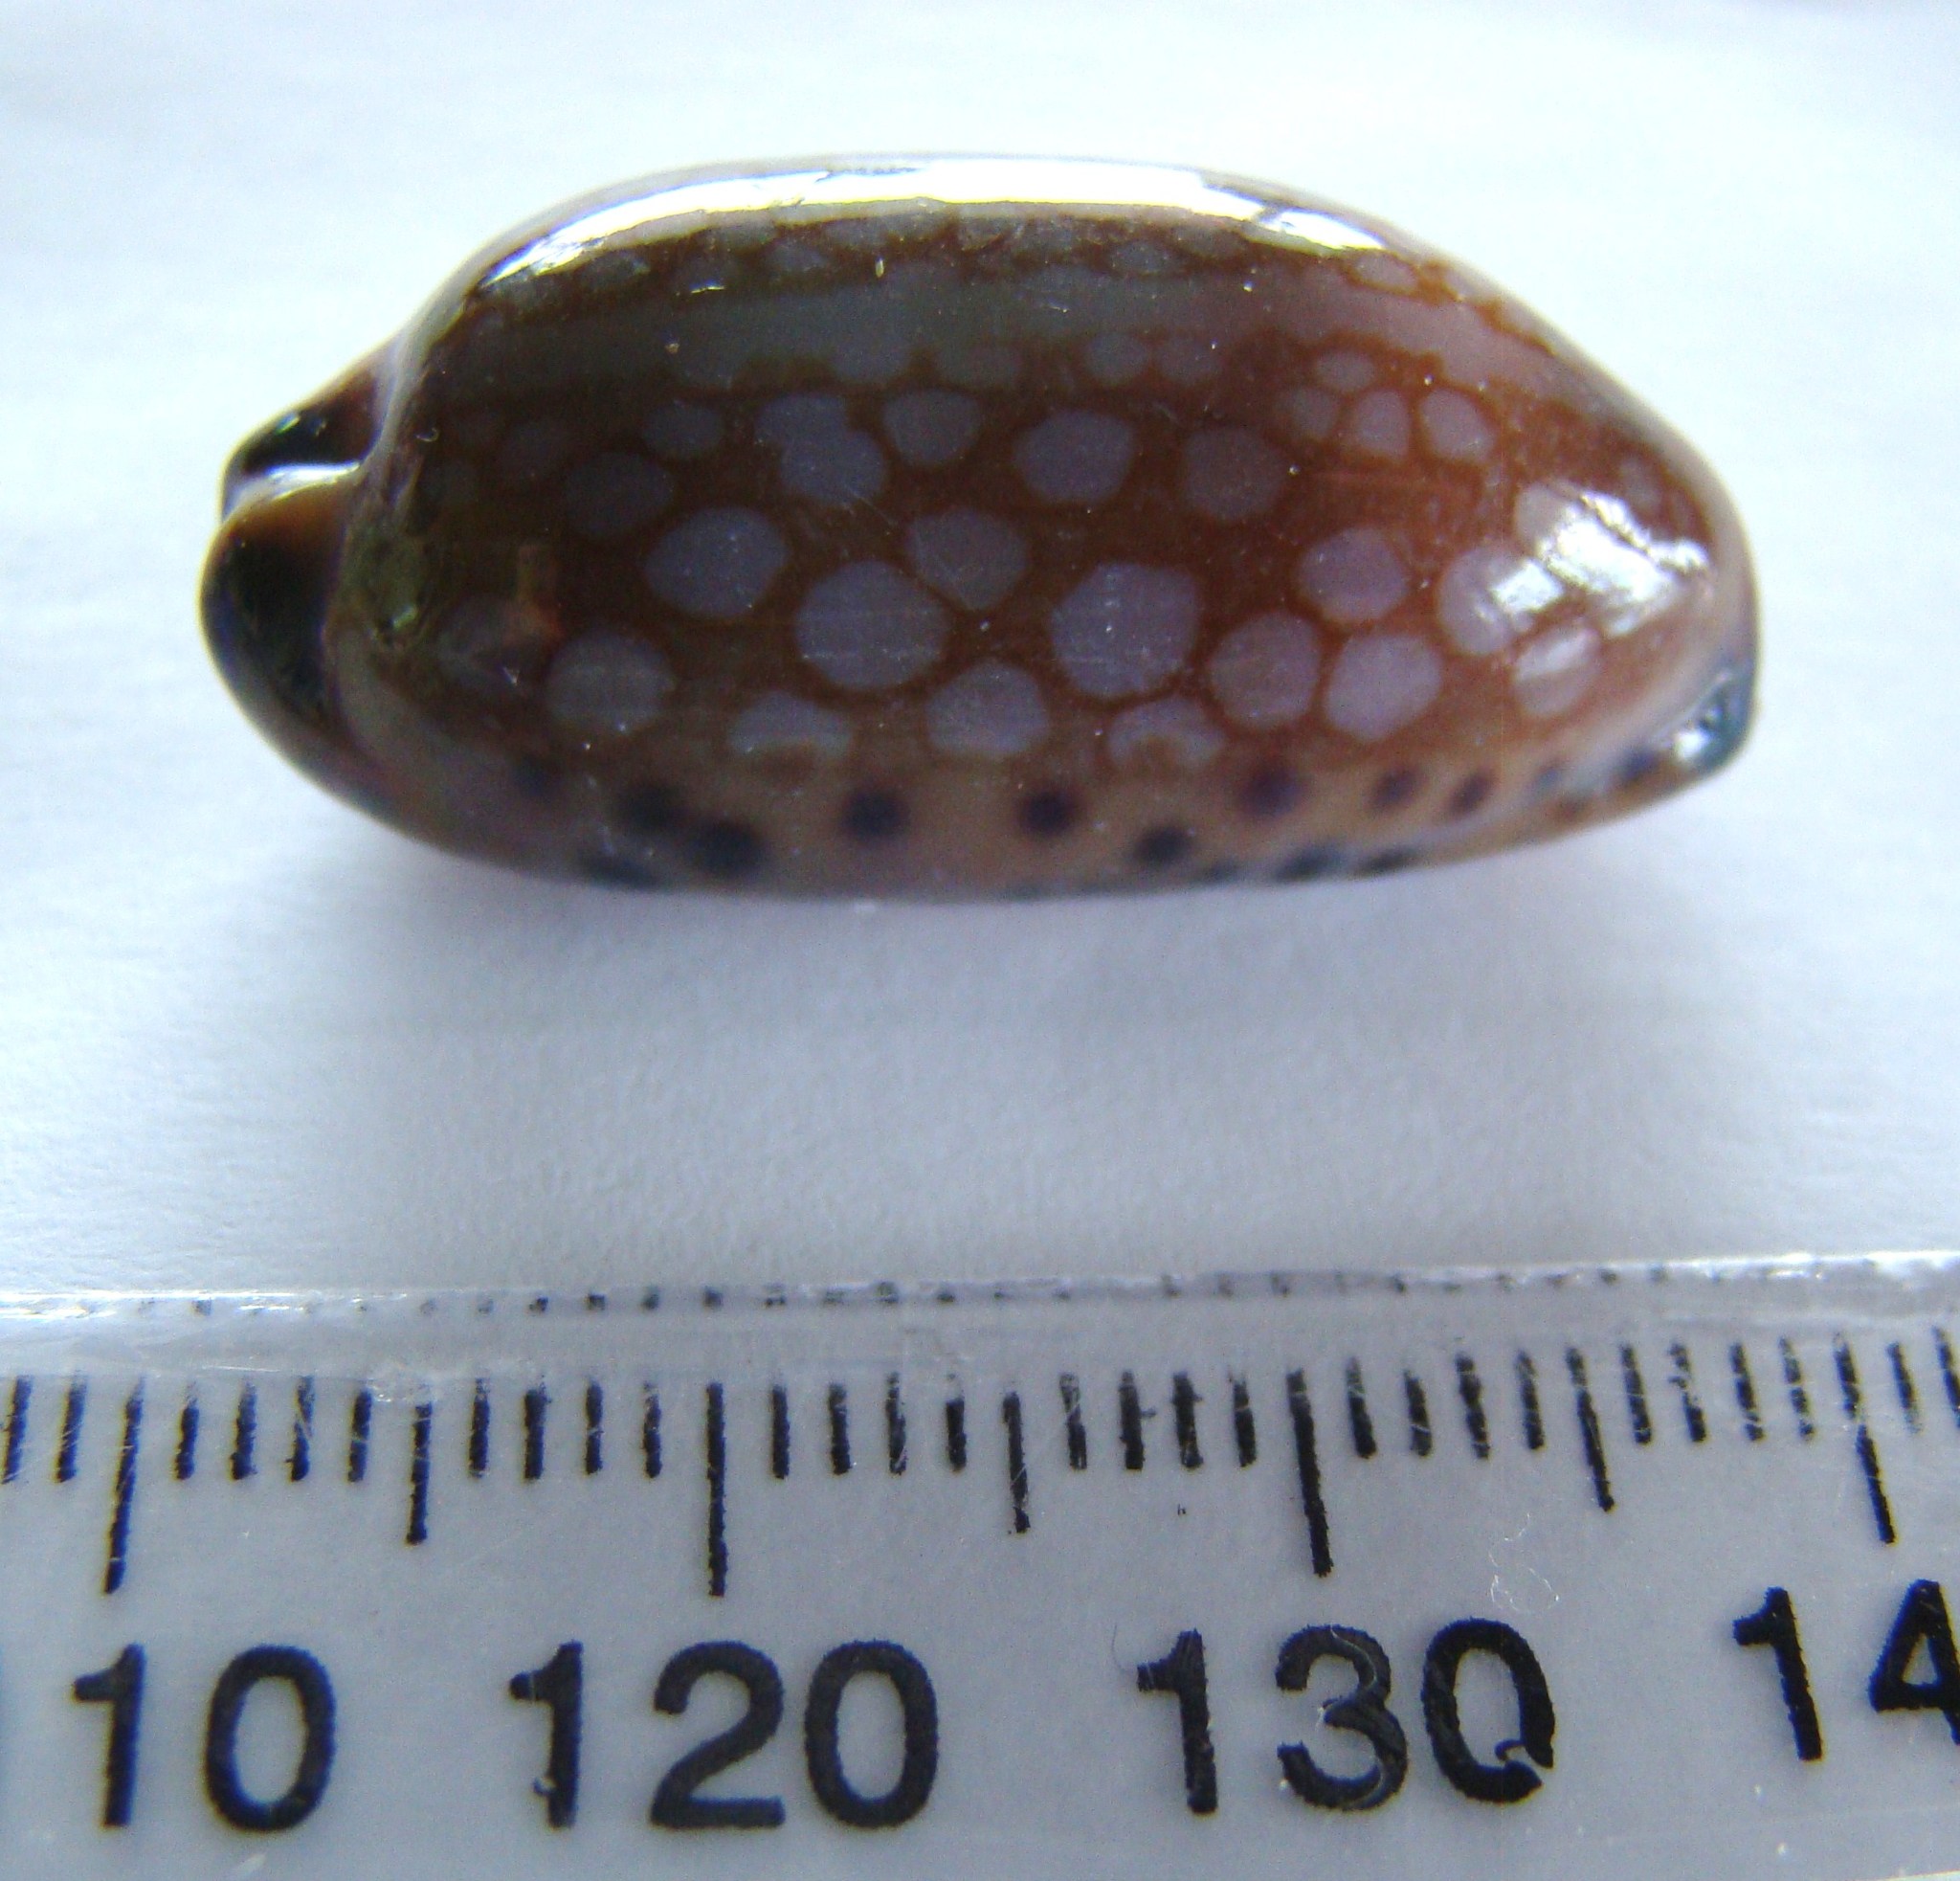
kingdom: Animalia
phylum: Mollusca
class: Gastropoda
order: Littorinimorpha
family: Cypraeidae
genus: Mauritia
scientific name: Mauritia scurra
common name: Jester cowrie
